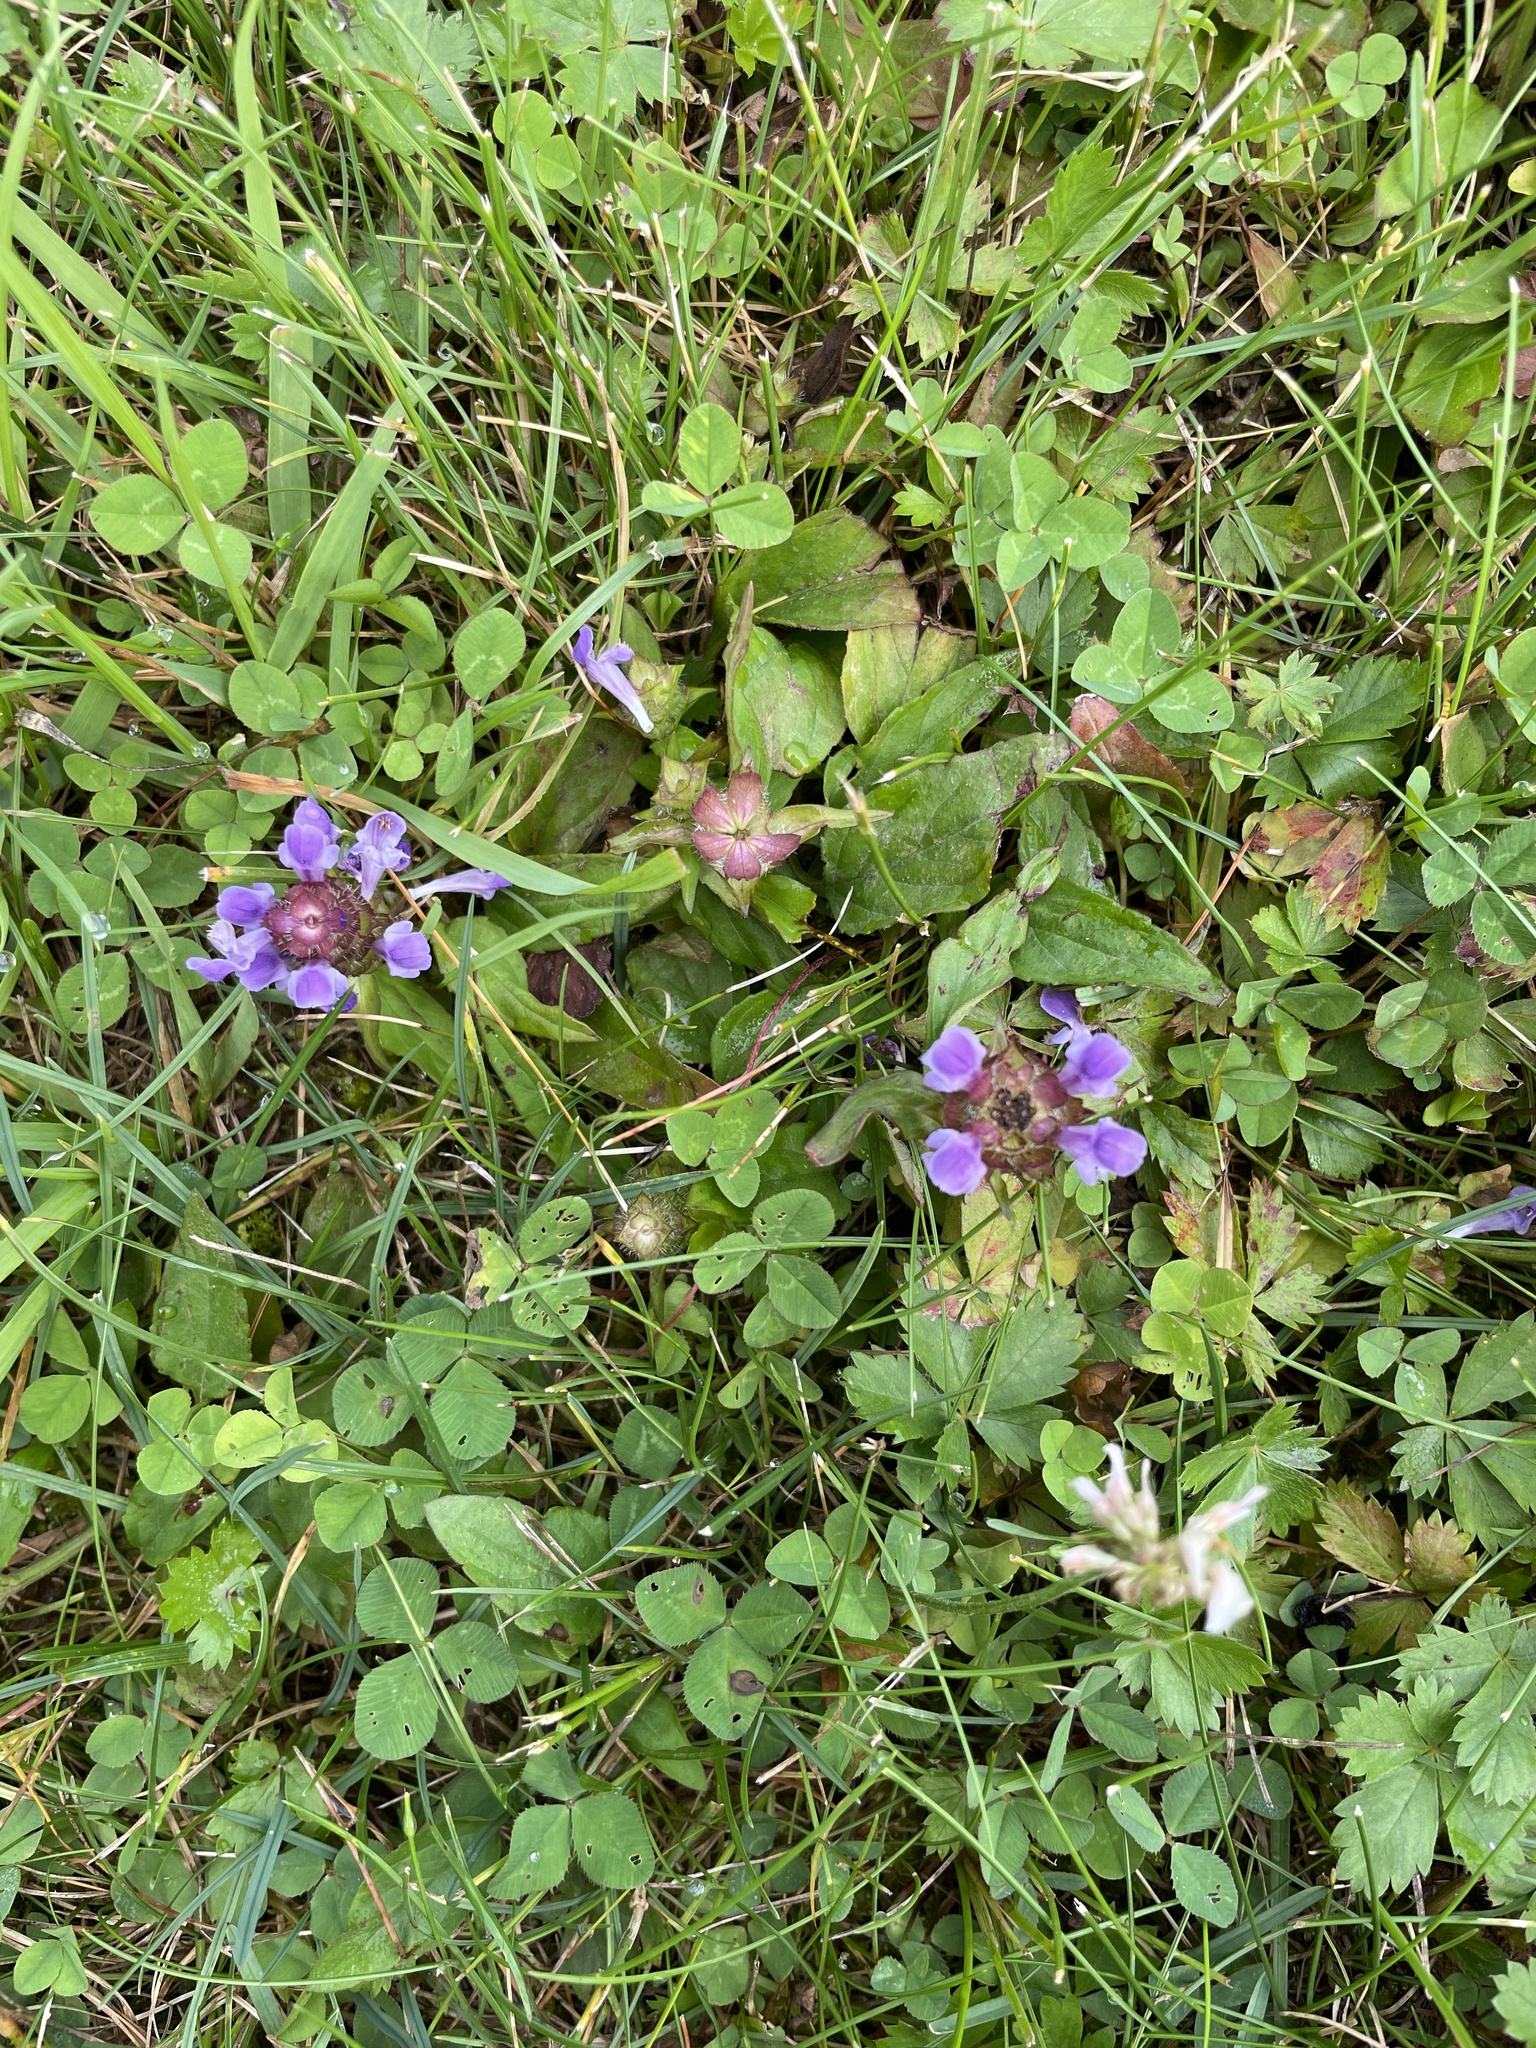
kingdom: Plantae
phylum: Tracheophyta
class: Magnoliopsida
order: Lamiales
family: Lamiaceae
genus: Prunella
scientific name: Prunella vulgaris
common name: Heal-all
